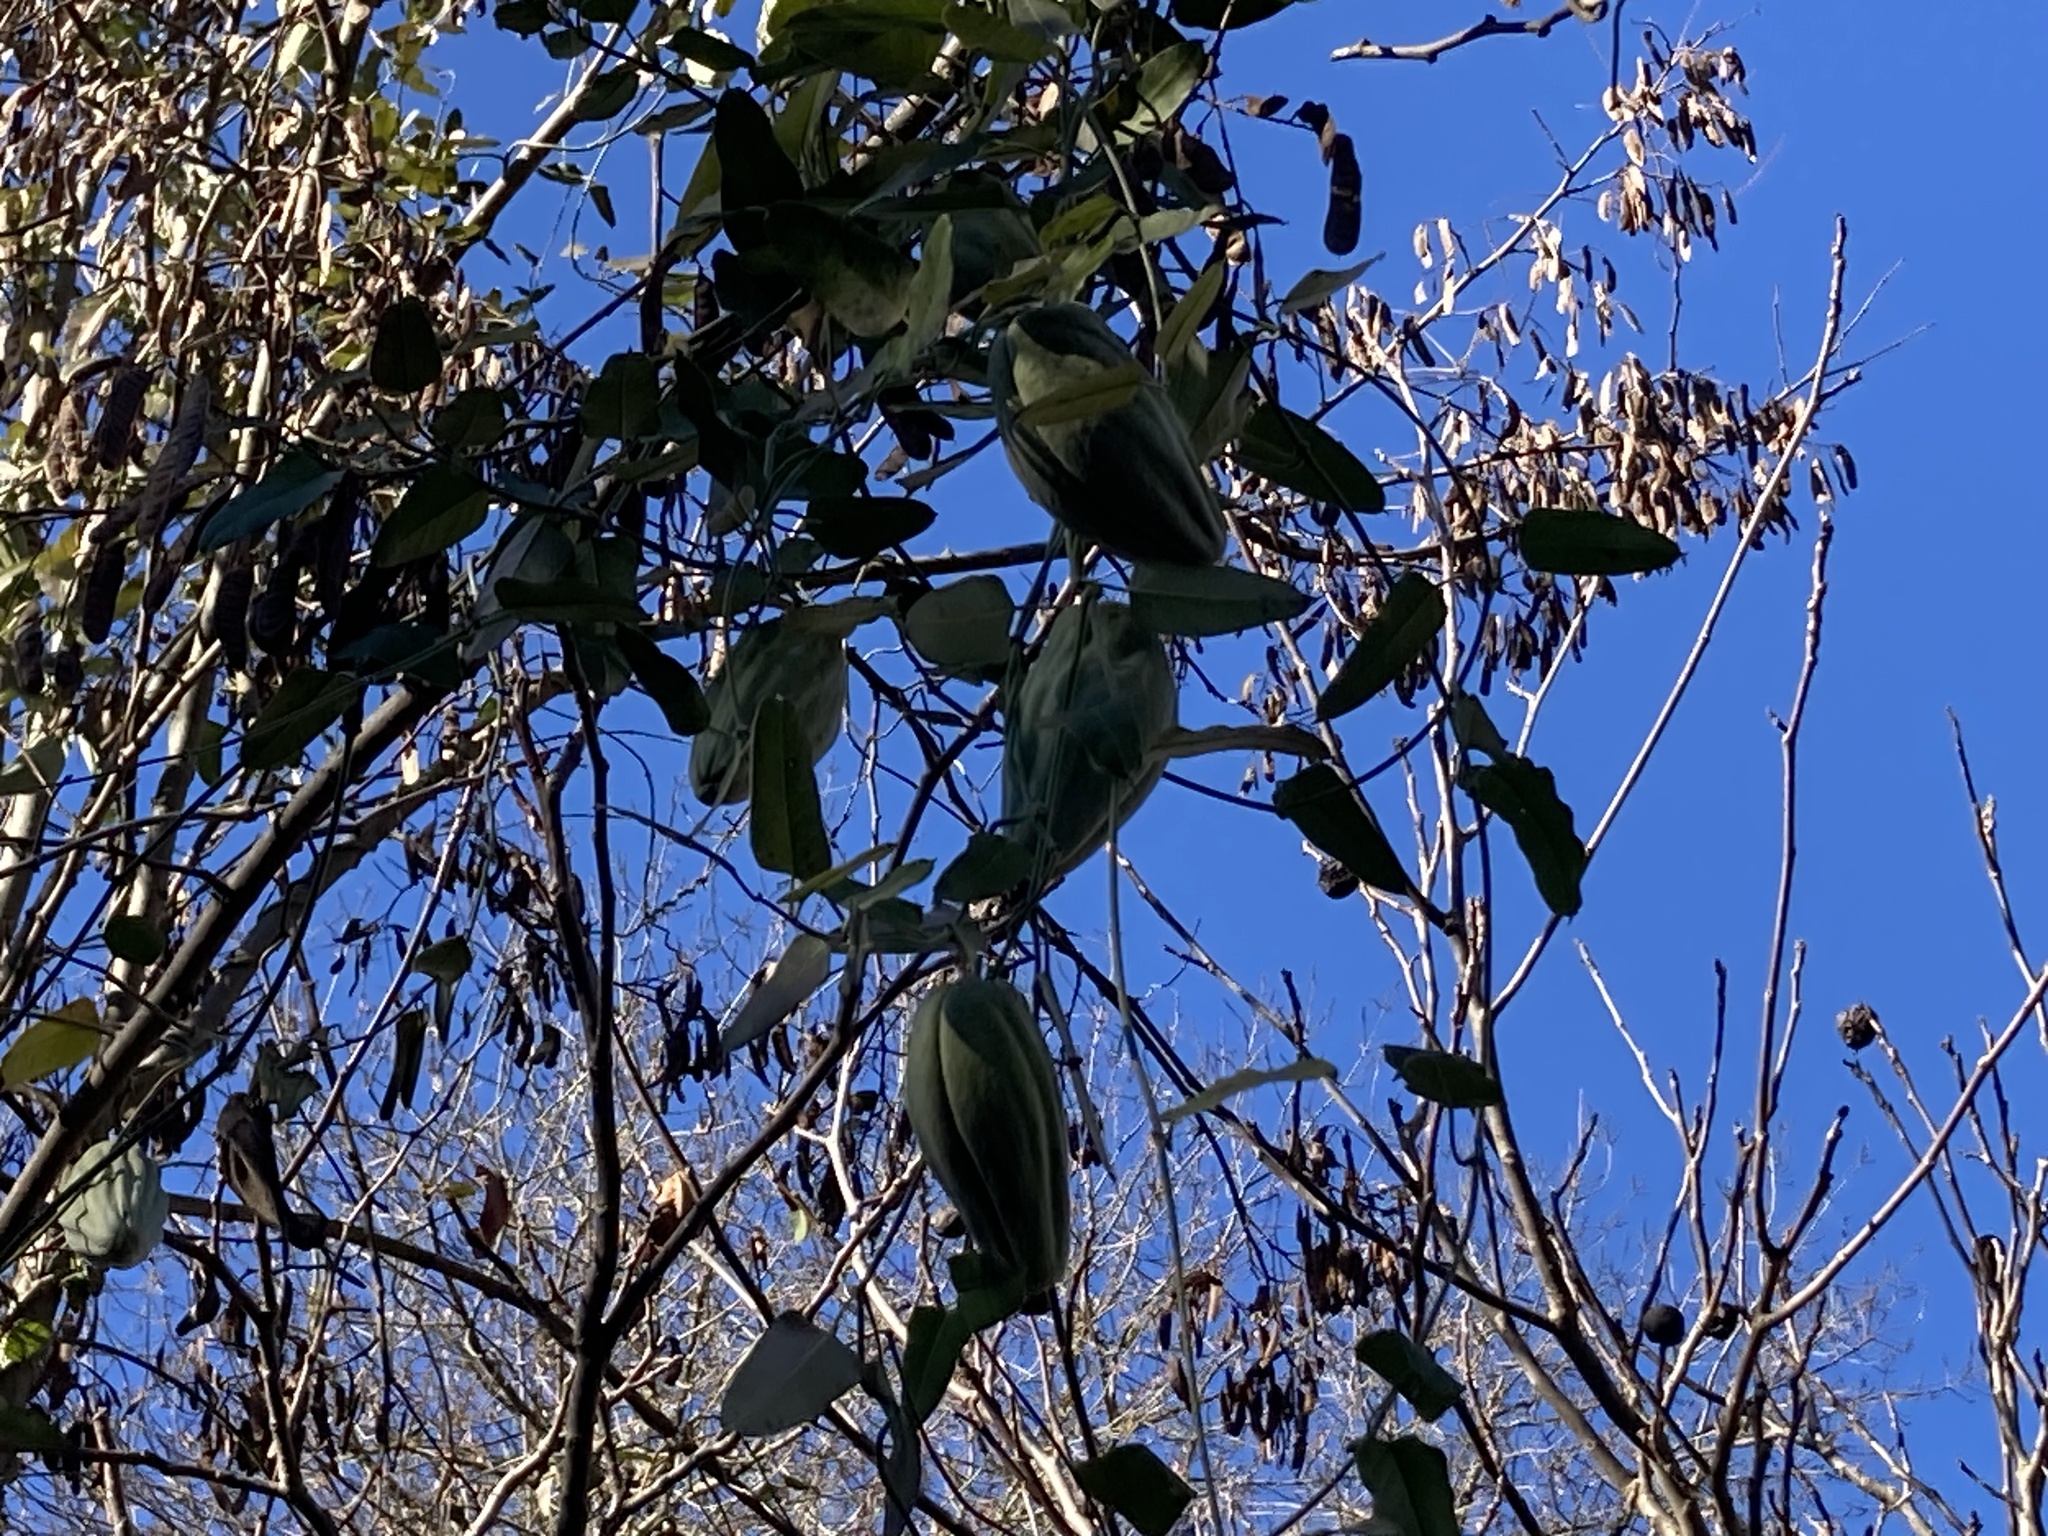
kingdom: Plantae
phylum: Tracheophyta
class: Magnoliopsida
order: Gentianales
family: Apocynaceae
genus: Araujia
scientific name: Araujia sericifera
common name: White bladderflower
